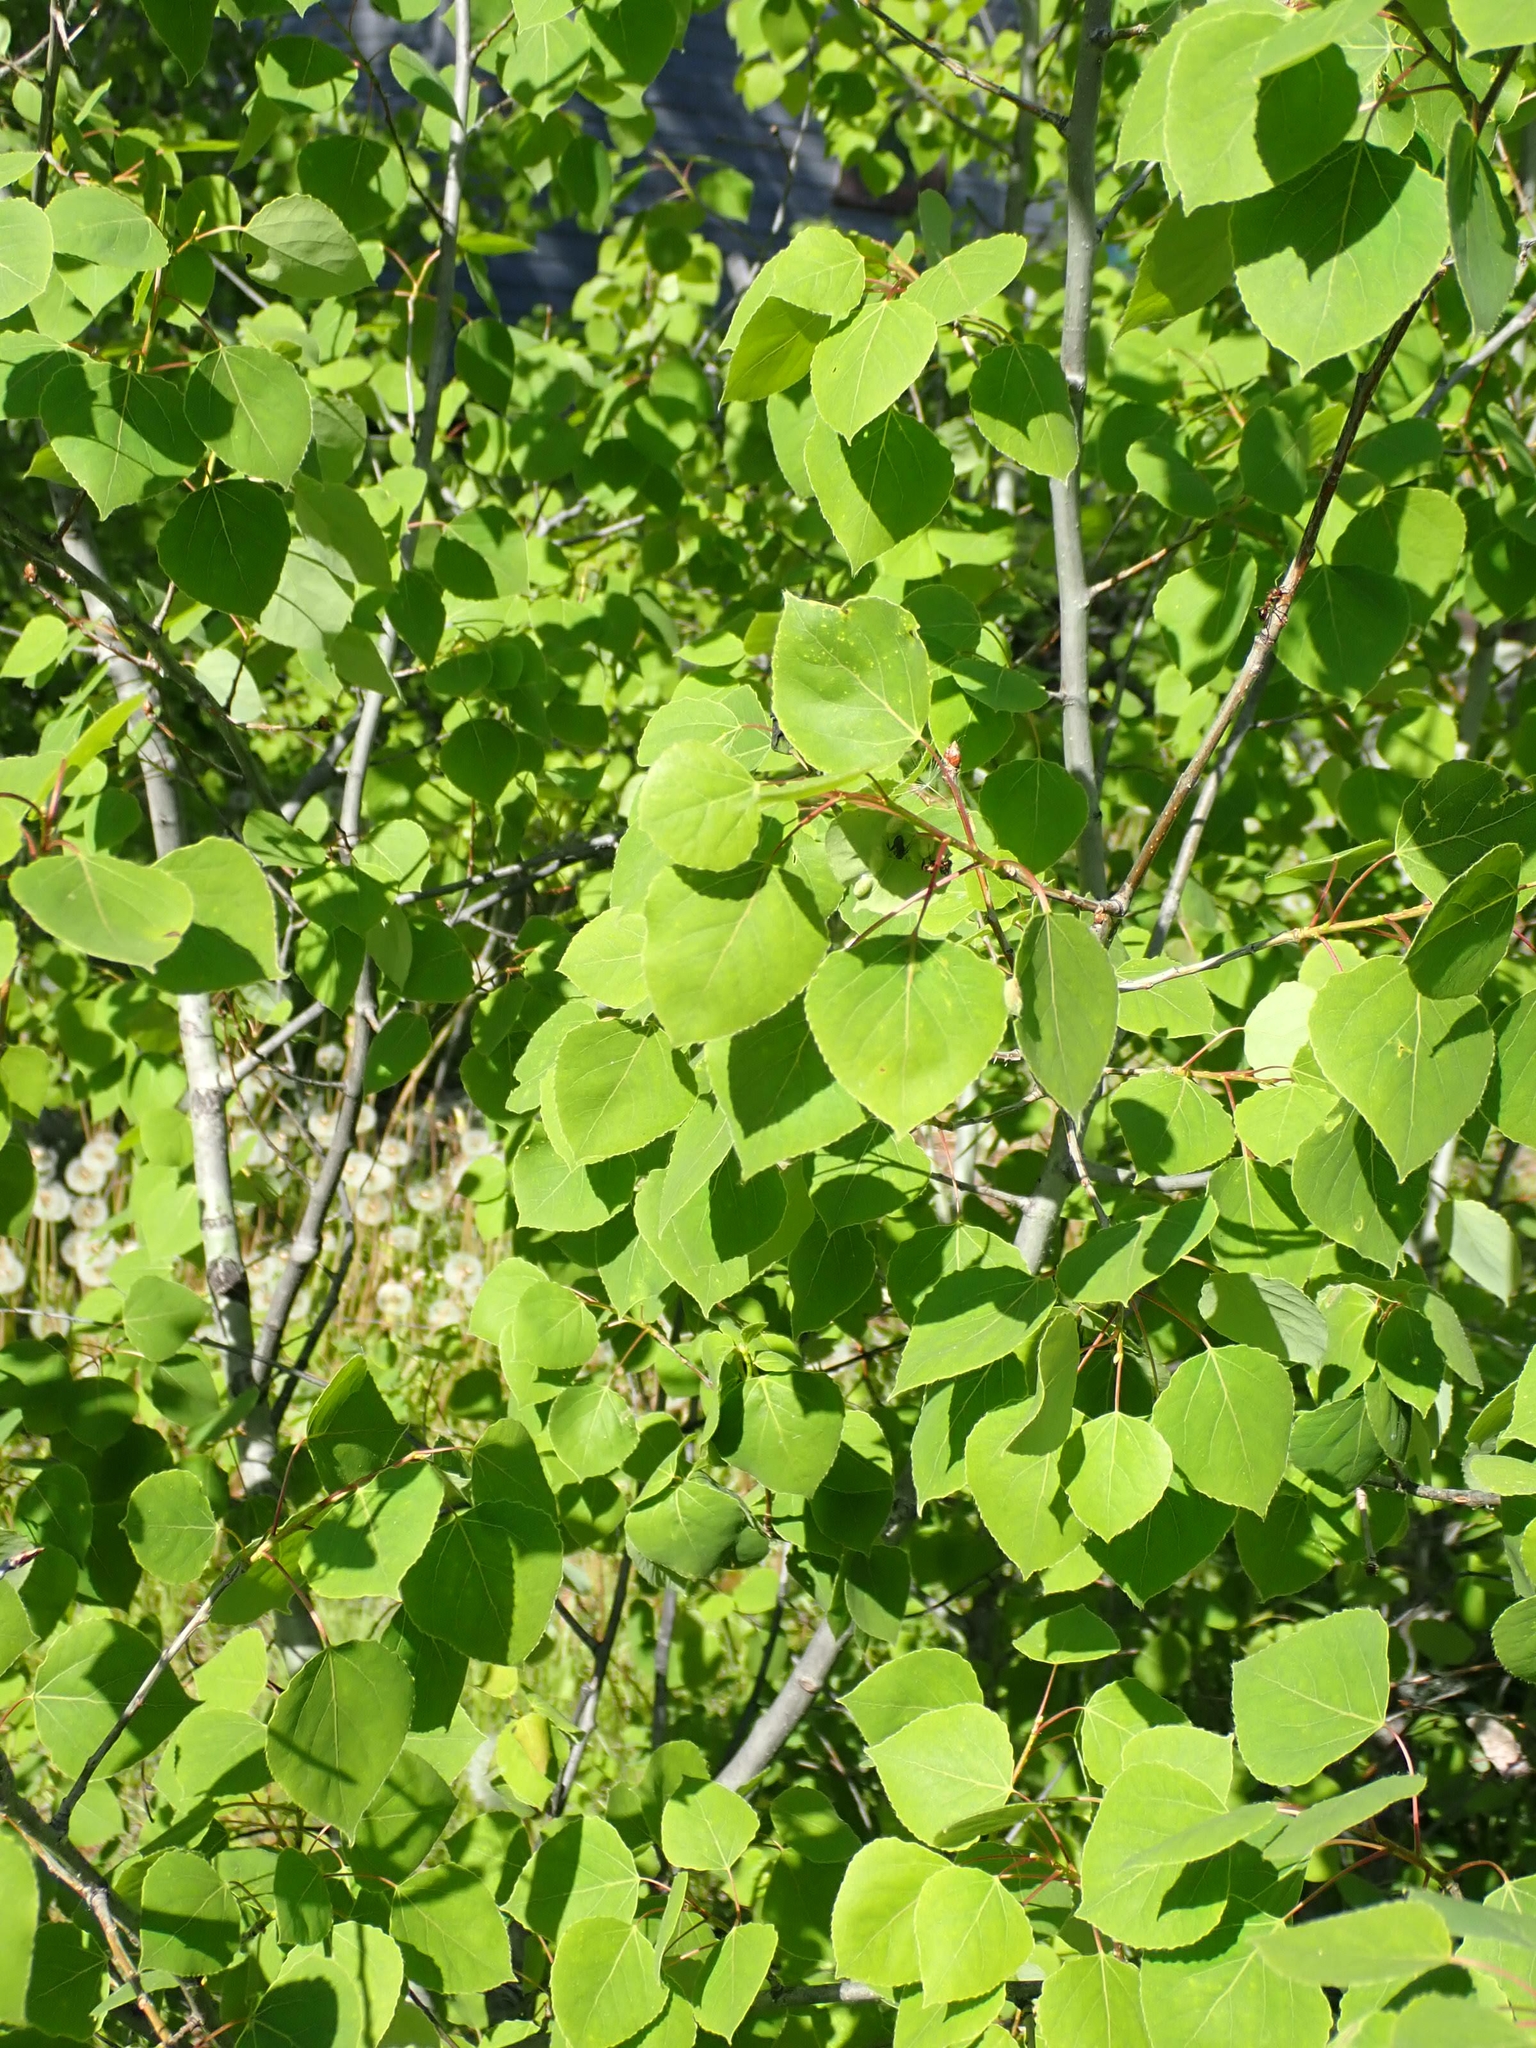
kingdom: Plantae
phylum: Tracheophyta
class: Magnoliopsida
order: Malpighiales
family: Salicaceae
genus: Populus
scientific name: Populus tremuloides
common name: Quaking aspen
